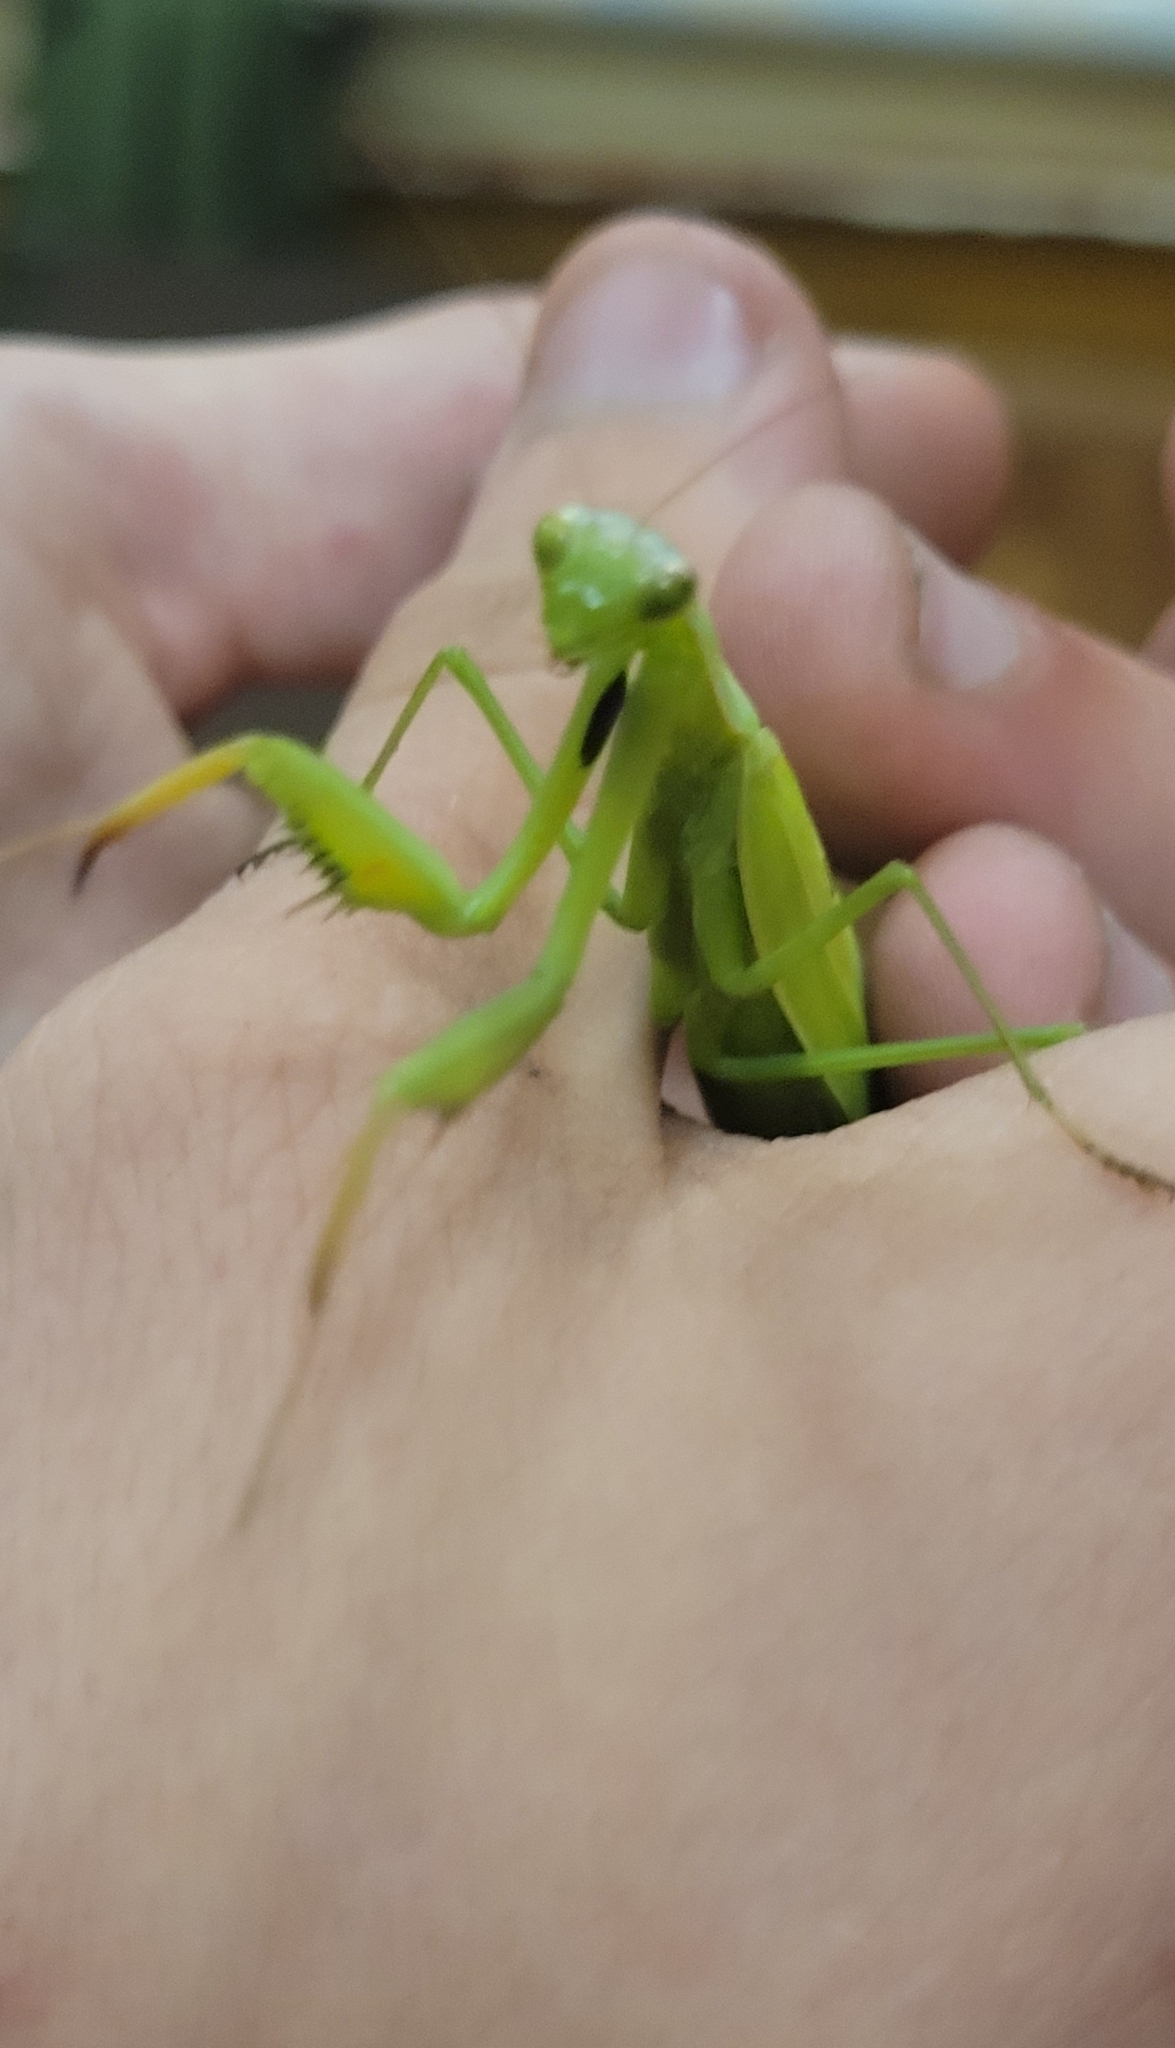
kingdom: Animalia
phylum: Arthropoda
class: Insecta
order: Mantodea
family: Mantidae
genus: Mantis
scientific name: Mantis religiosa
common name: Praying mantis
